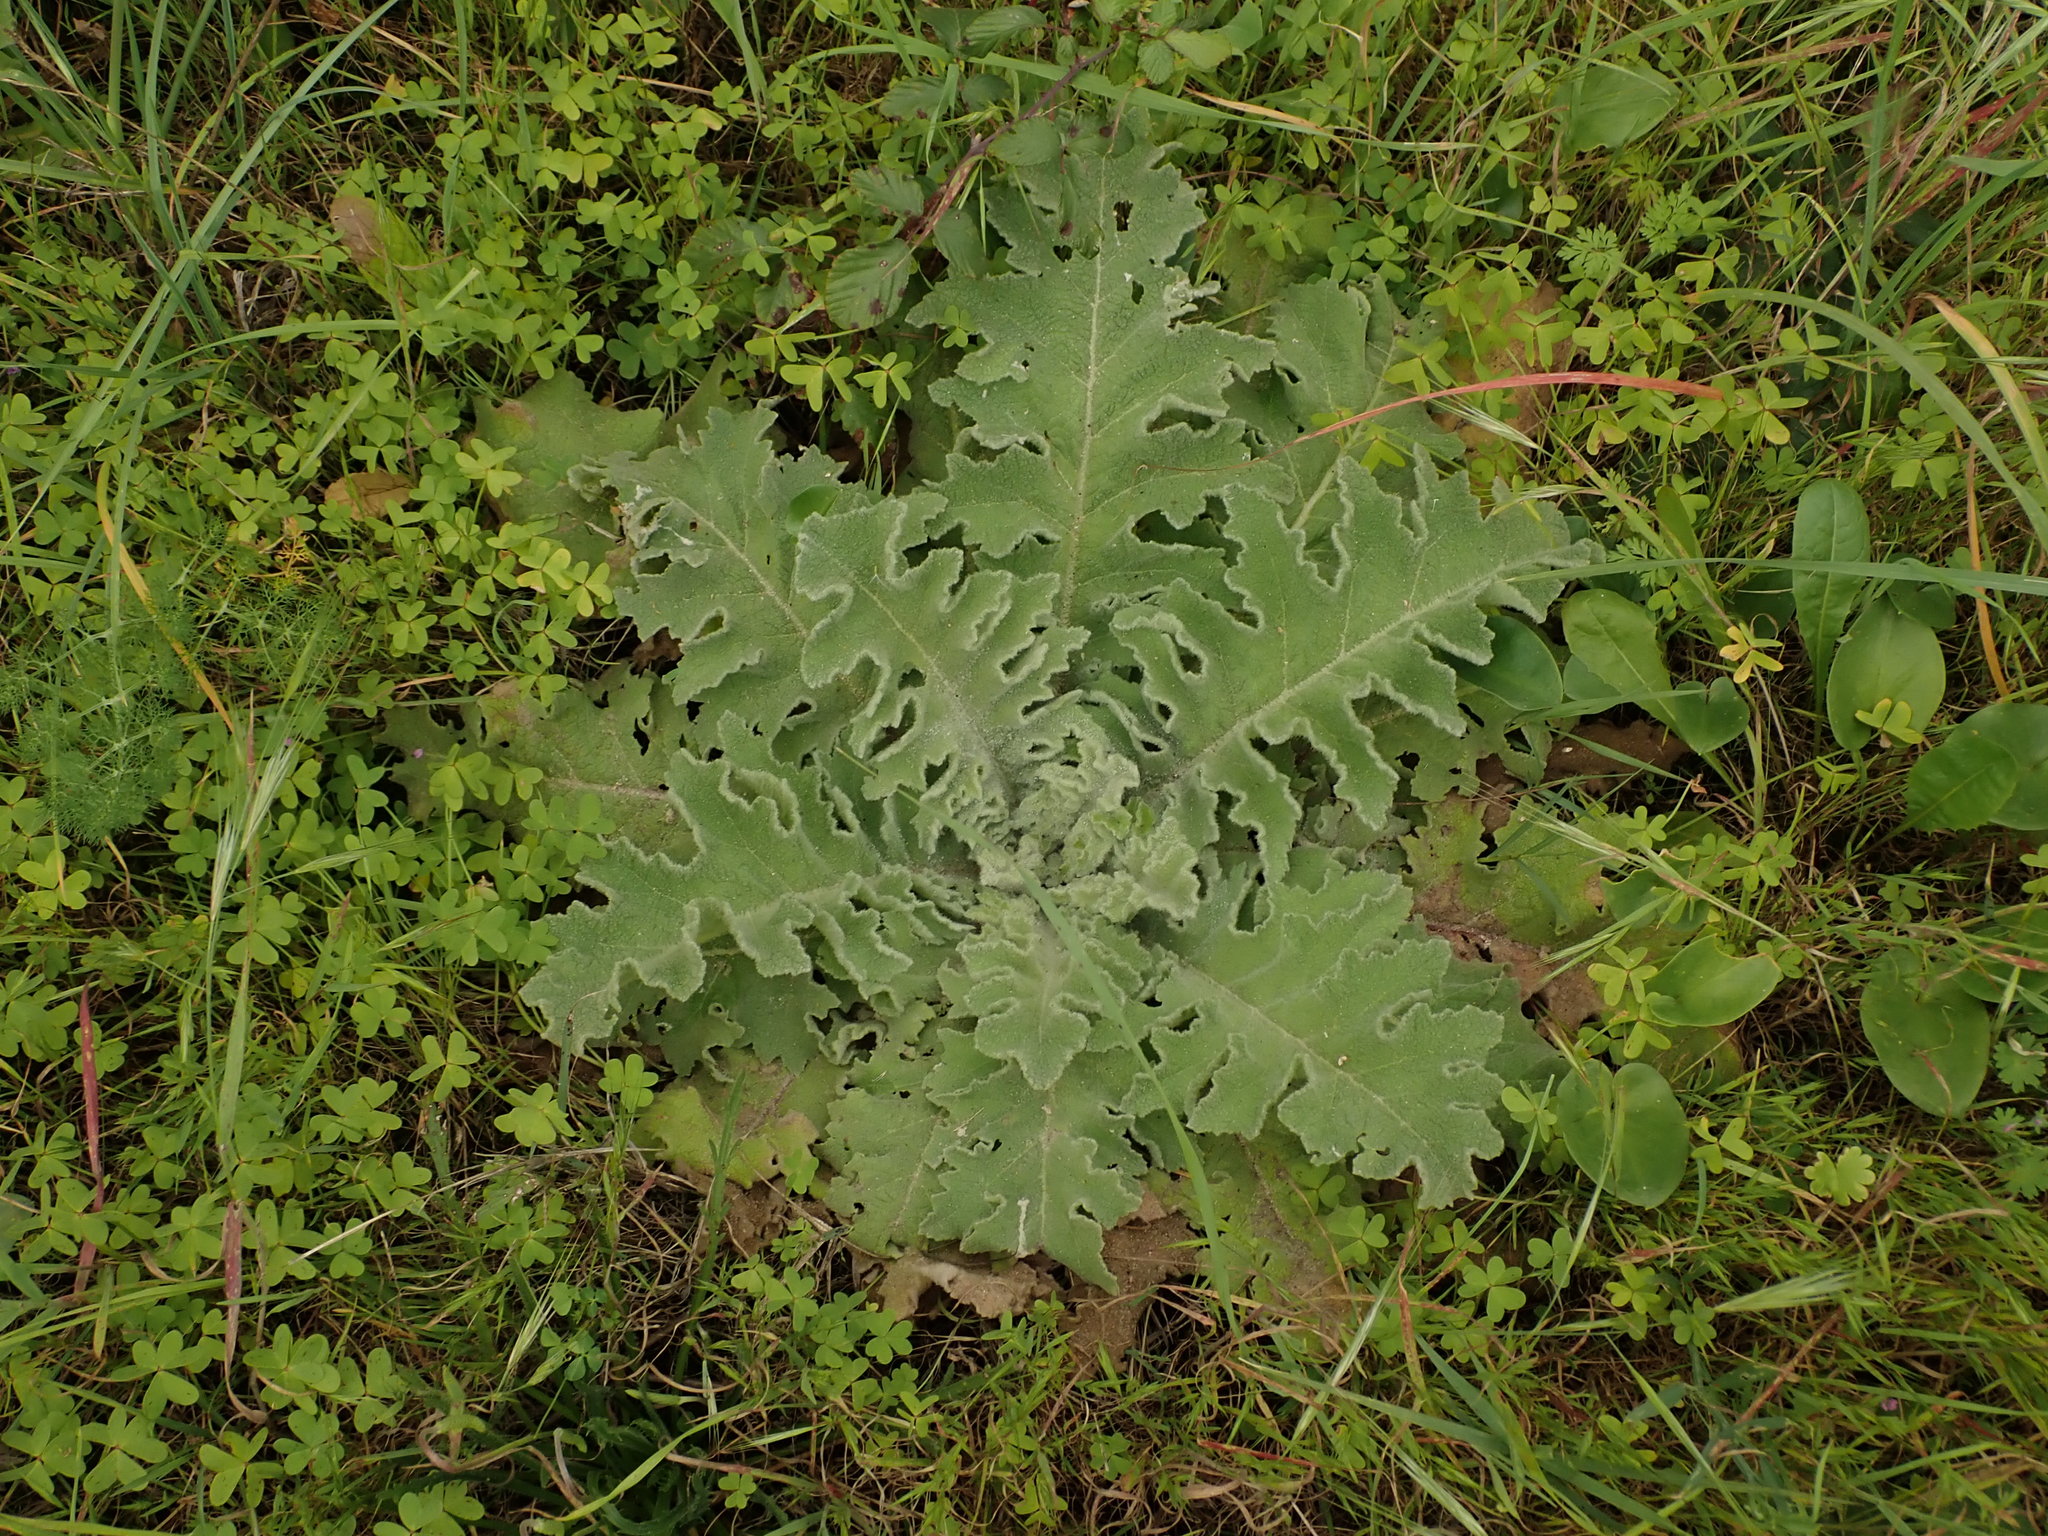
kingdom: Plantae
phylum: Tracheophyta
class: Magnoliopsida
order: Lamiales
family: Scrophulariaceae
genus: Verbascum
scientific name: Verbascum sinuatum
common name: Wavyleaf mullein
